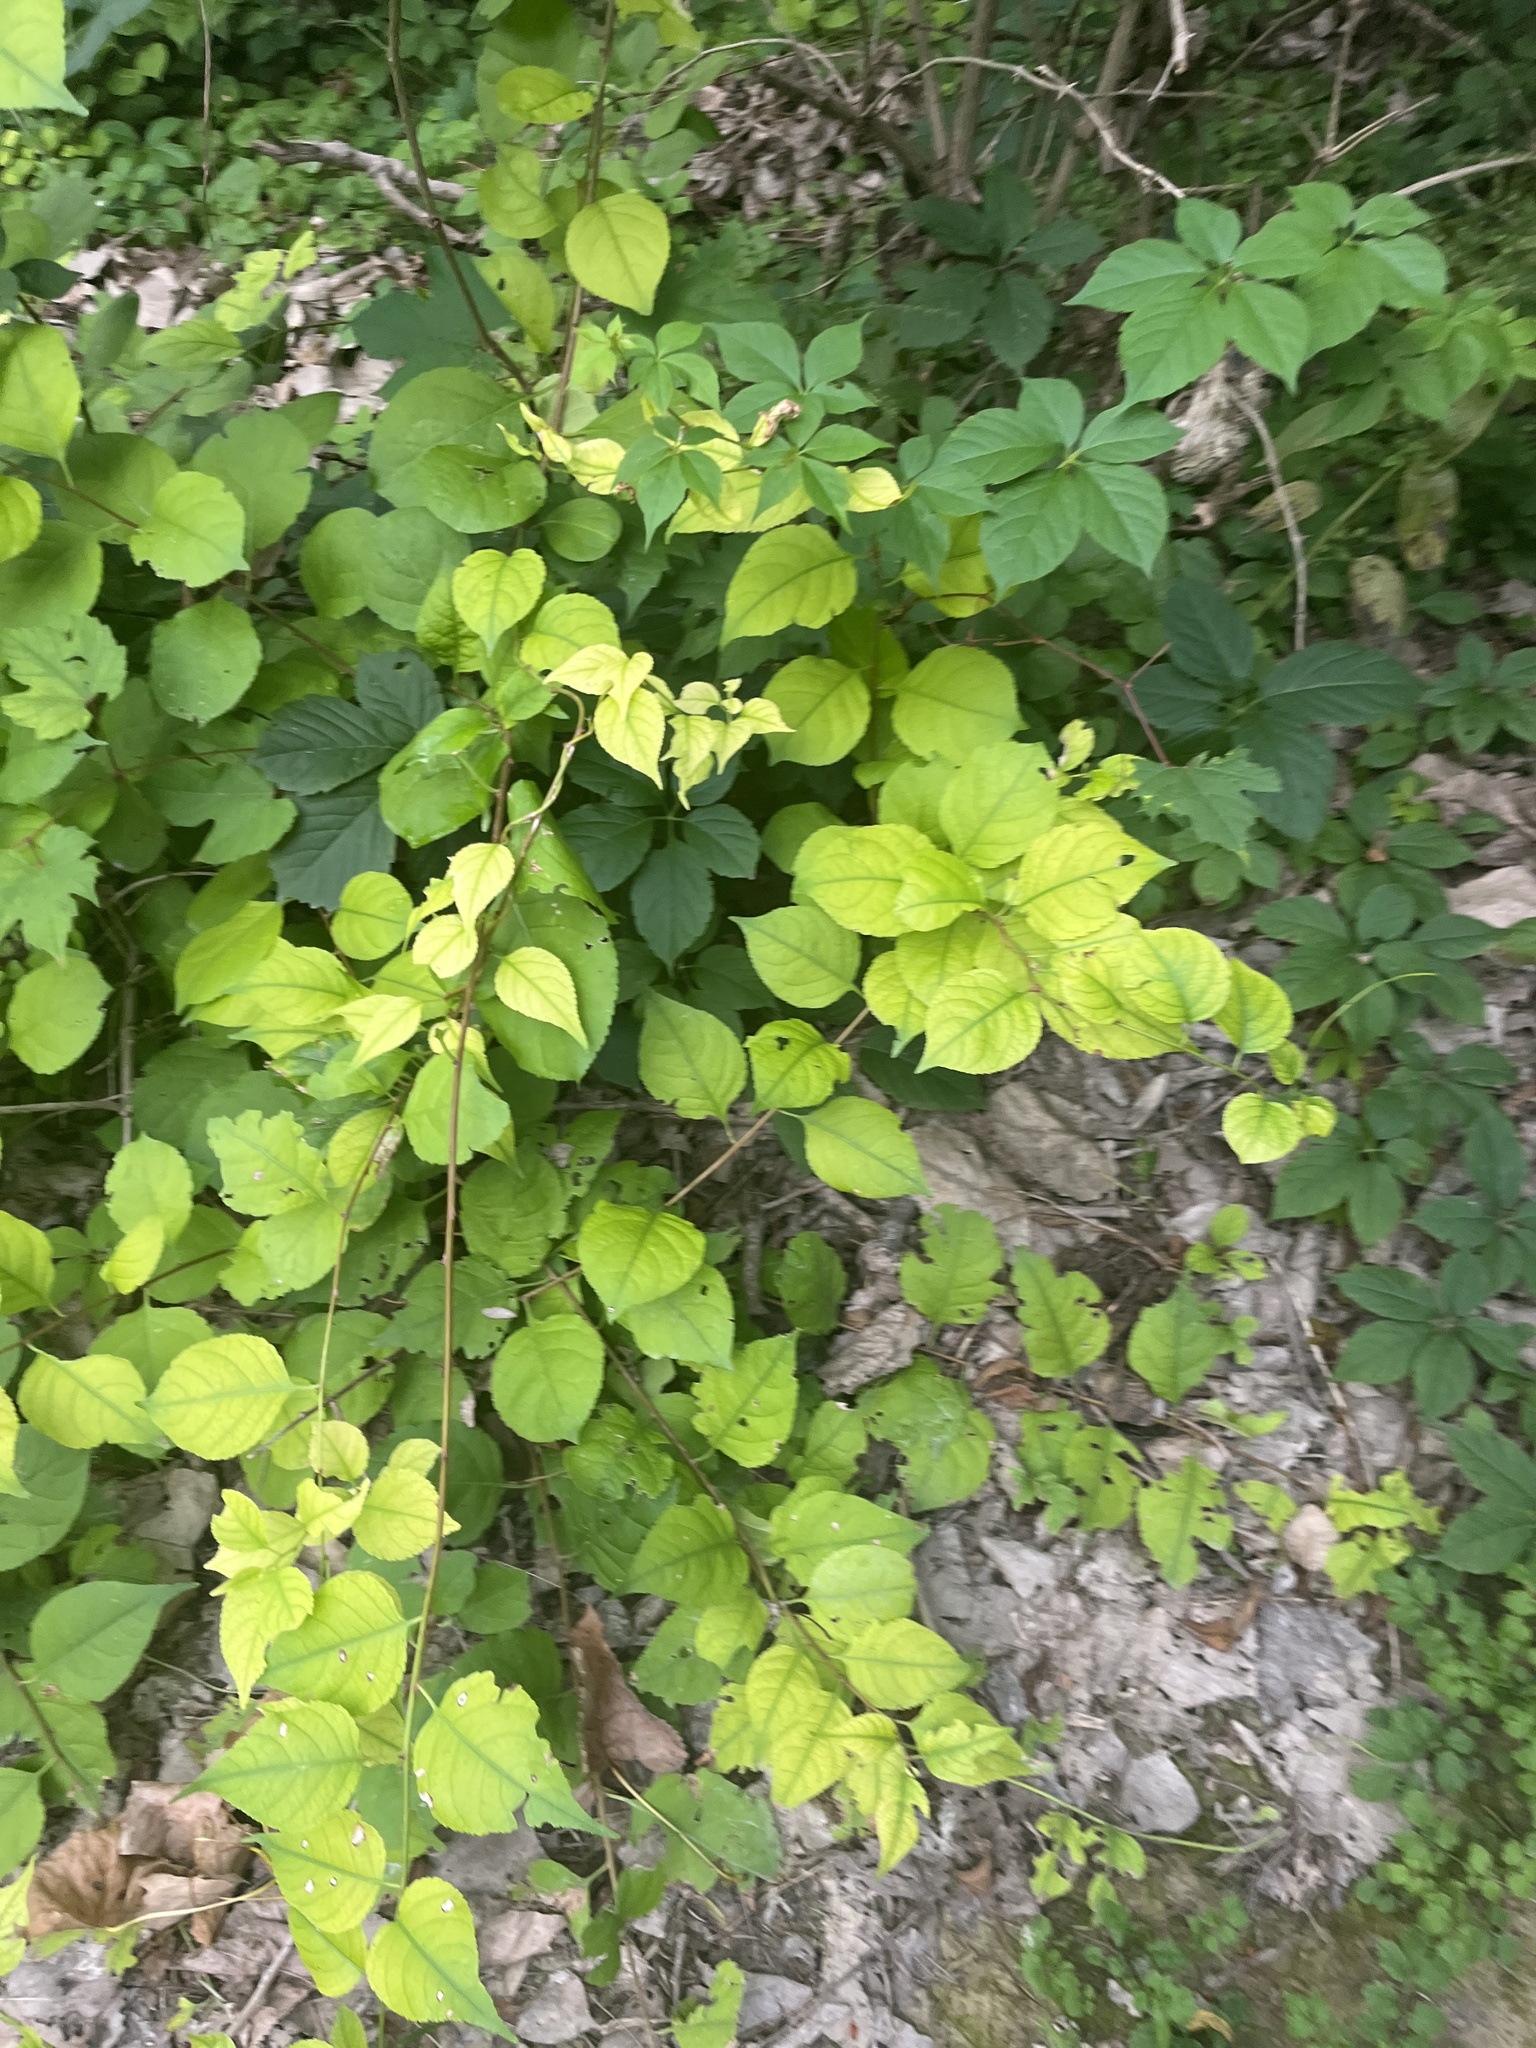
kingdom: Plantae
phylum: Tracheophyta
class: Magnoliopsida
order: Celastrales
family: Celastraceae
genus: Celastrus
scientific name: Celastrus orbiculatus
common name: Oriental bittersweet
